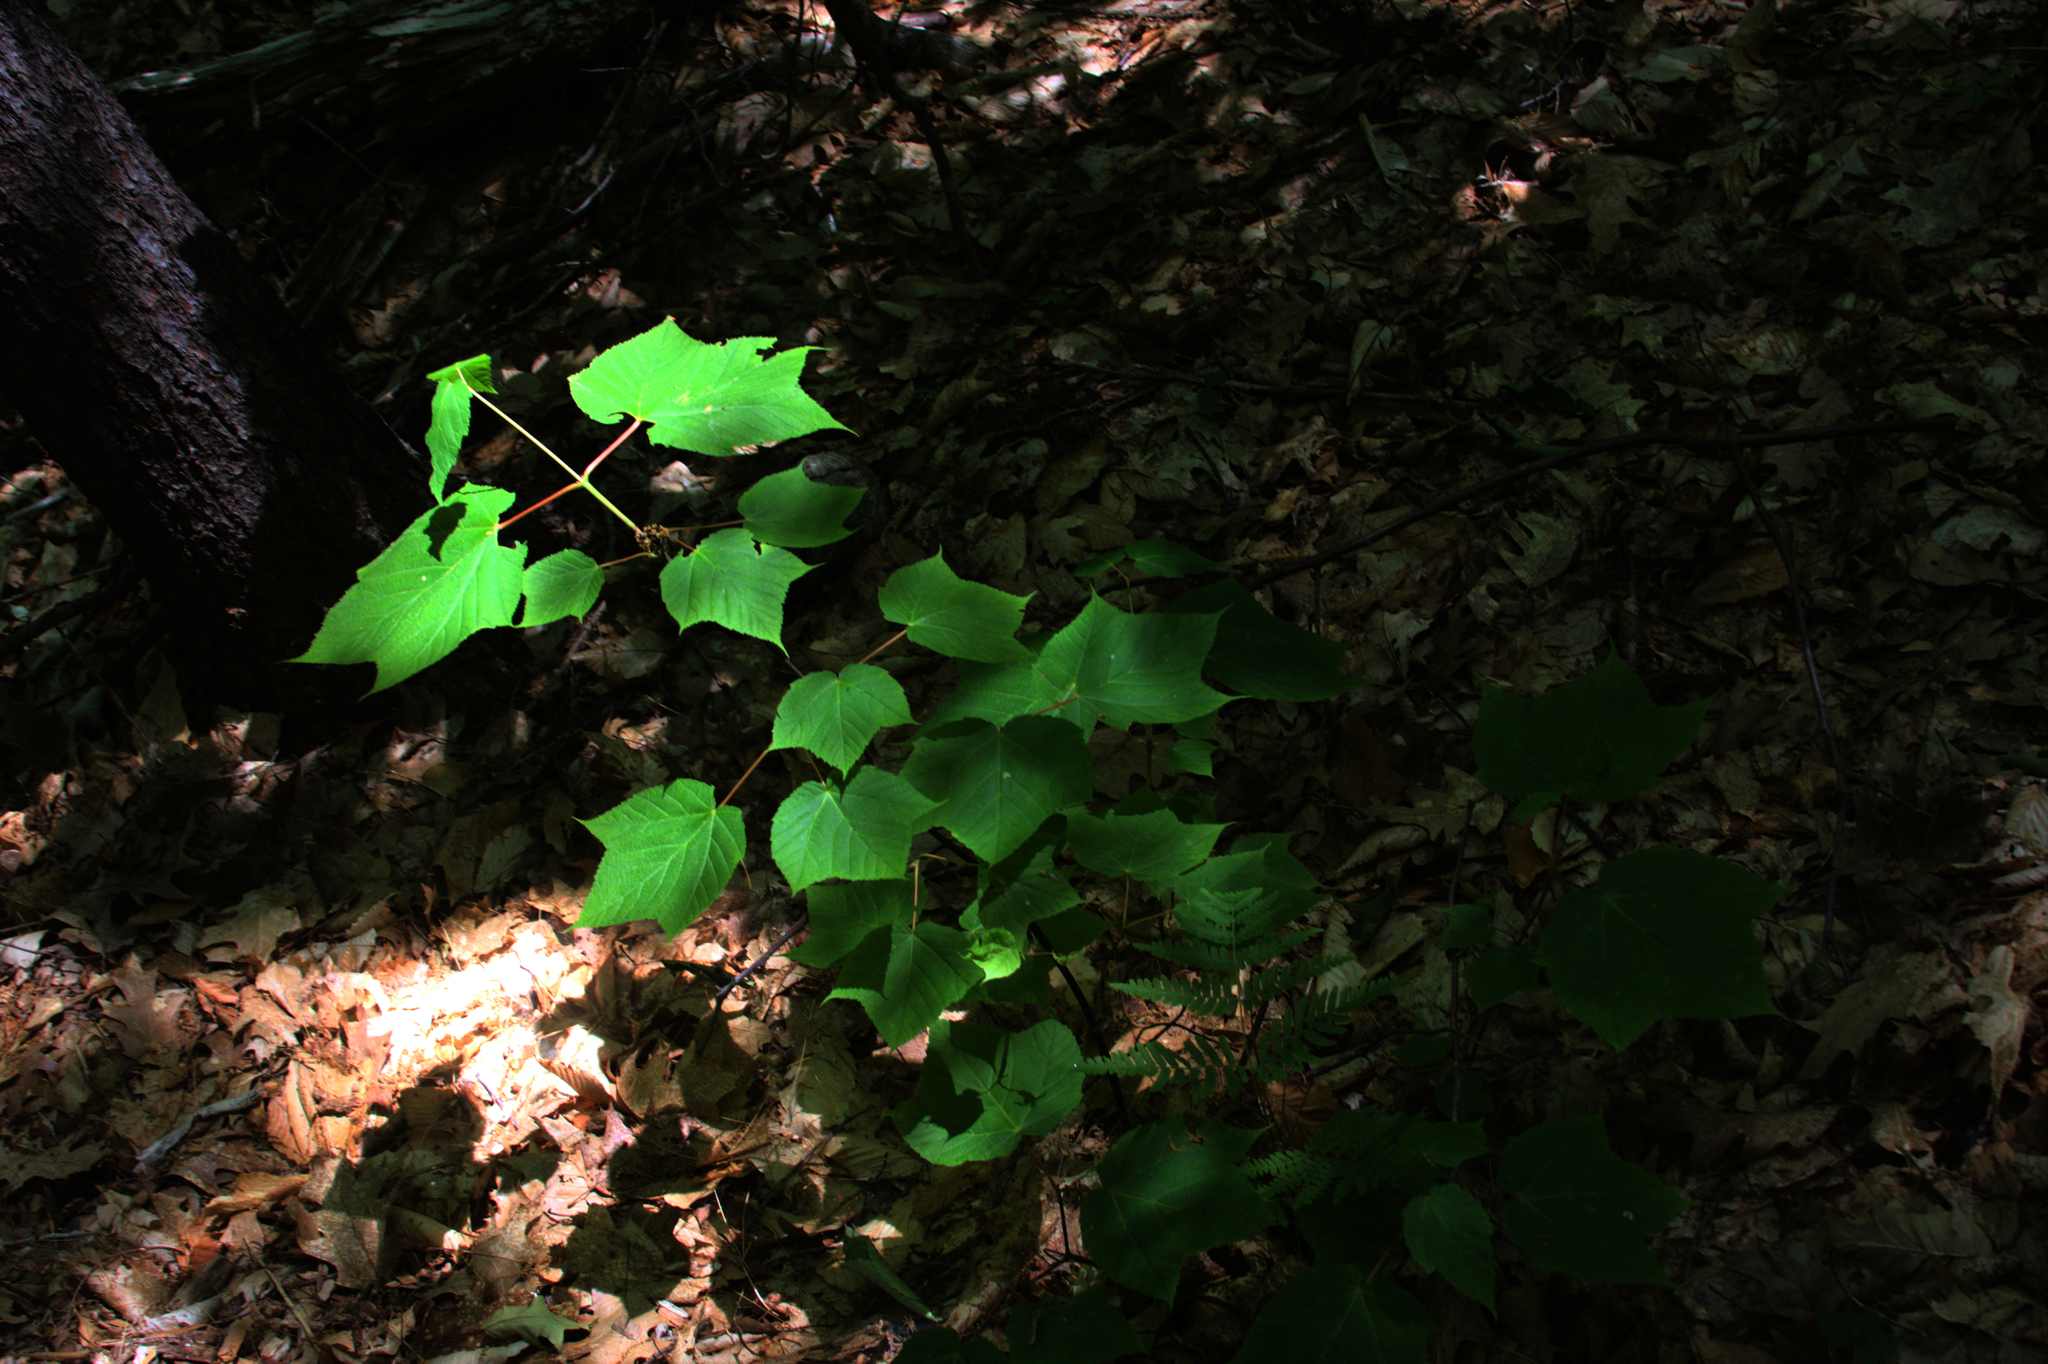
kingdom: Plantae
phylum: Tracheophyta
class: Magnoliopsida
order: Sapindales
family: Sapindaceae
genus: Acer
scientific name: Acer pensylvanicum
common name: Moosewood
